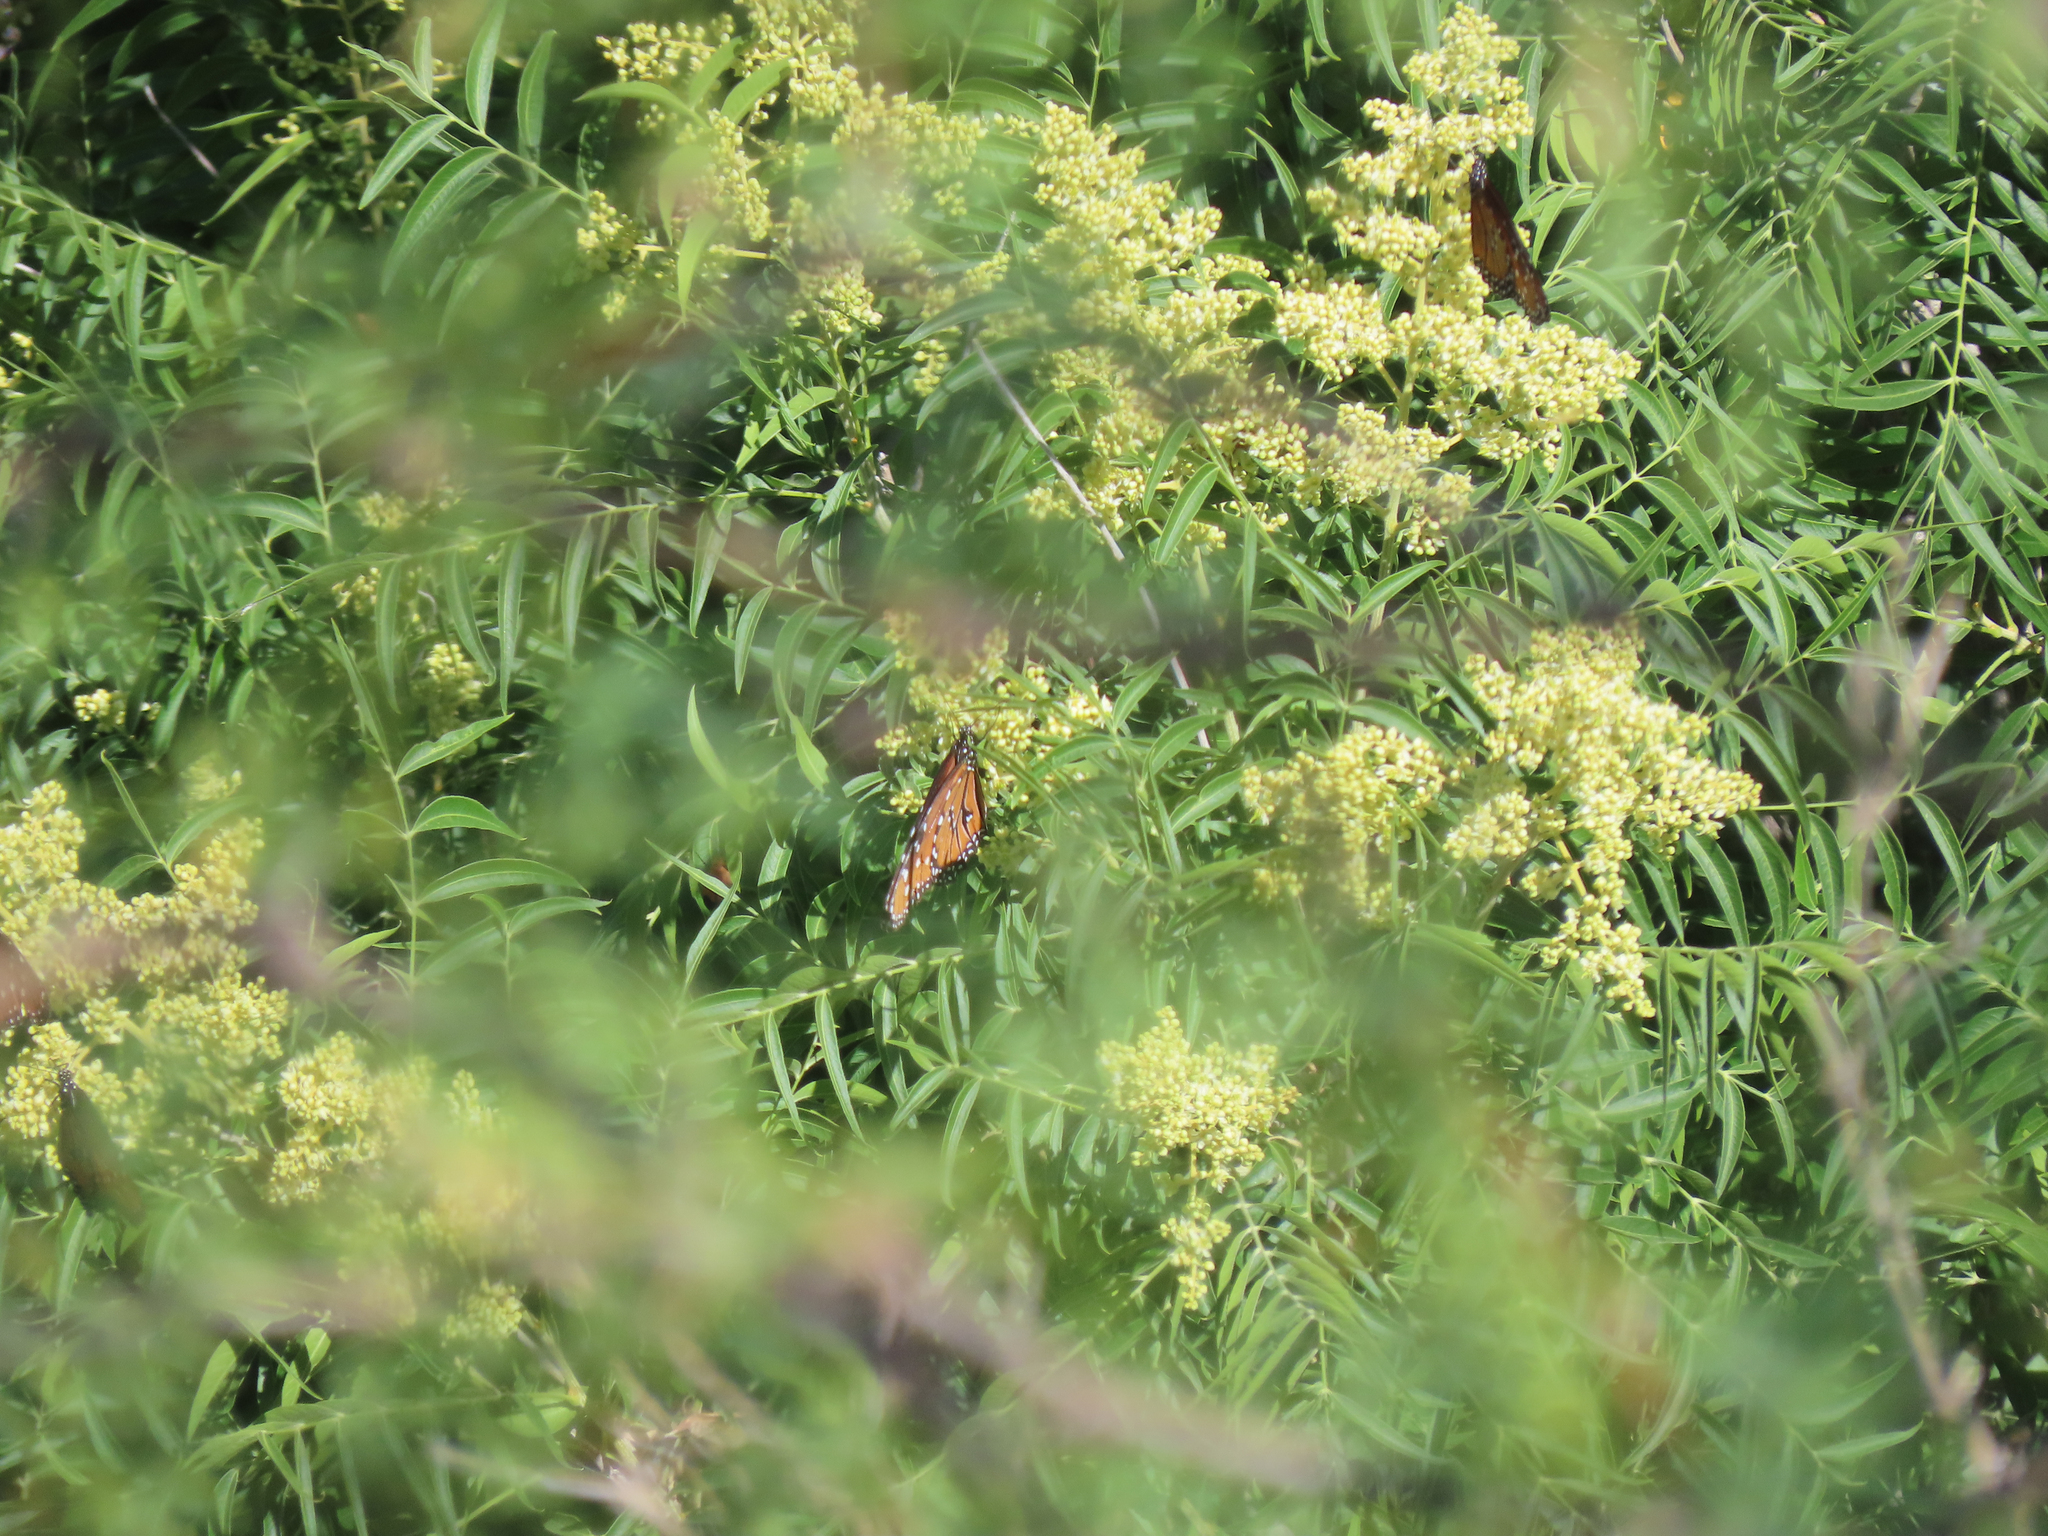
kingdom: Animalia
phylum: Arthropoda
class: Insecta
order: Lepidoptera
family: Nymphalidae
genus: Danaus
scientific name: Danaus gilippus
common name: Queen
